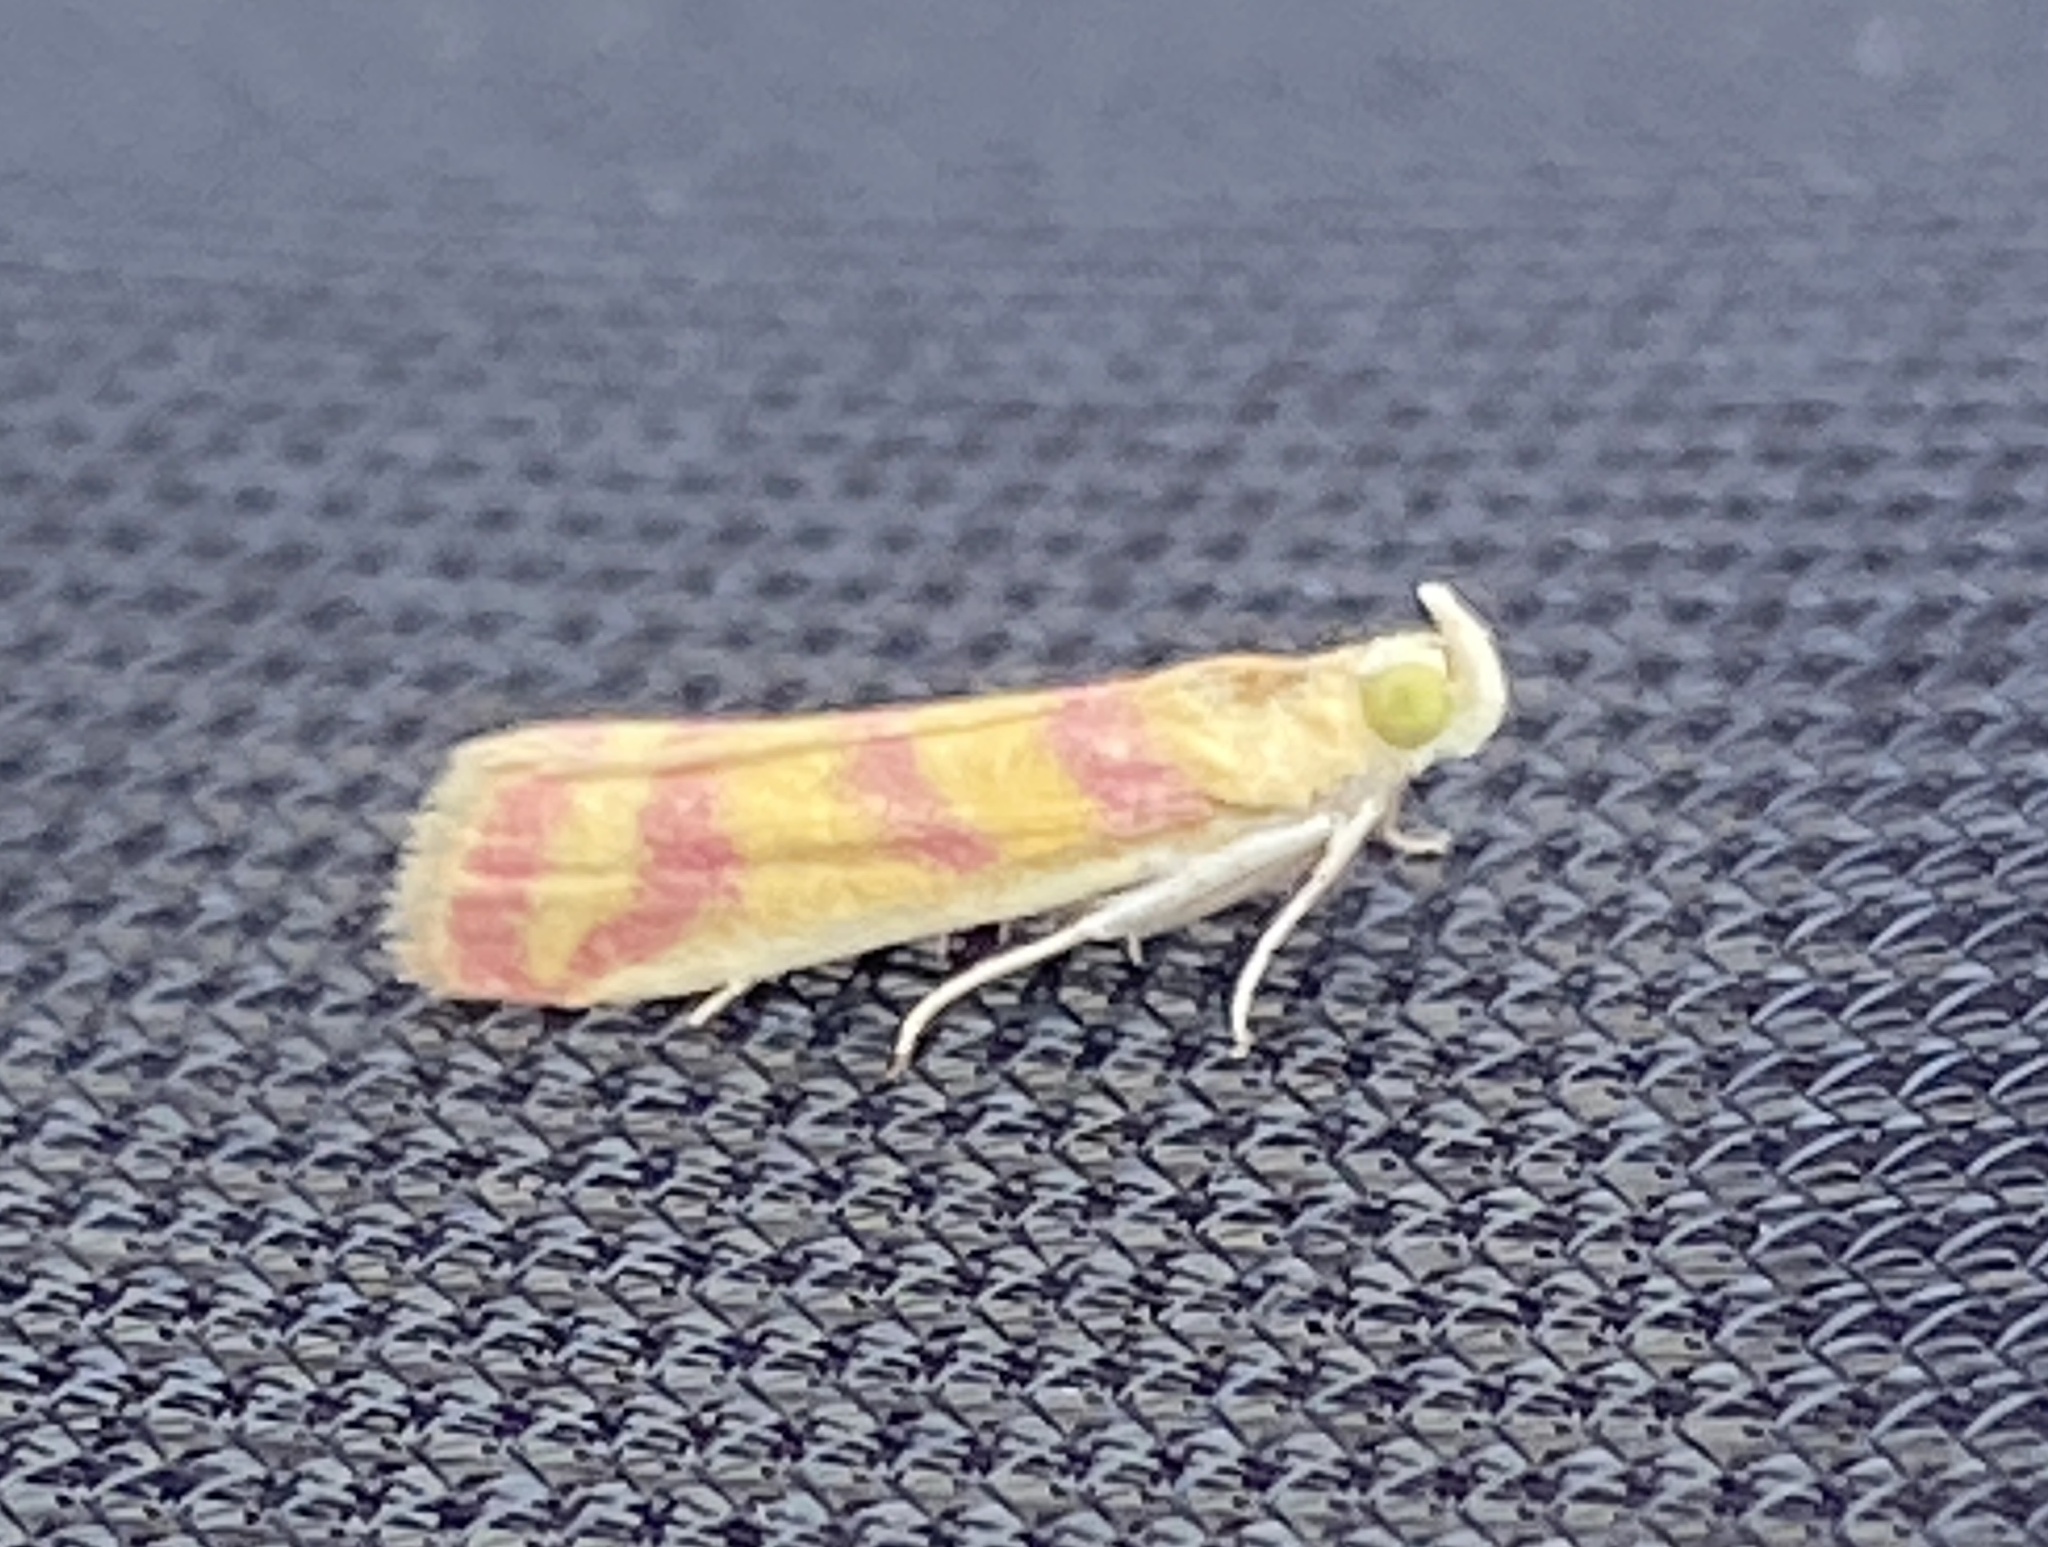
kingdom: Animalia
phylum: Arthropoda
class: Insecta
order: Lepidoptera
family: Pyralidae
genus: Ancylosis
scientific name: Ancylosis hellenica
